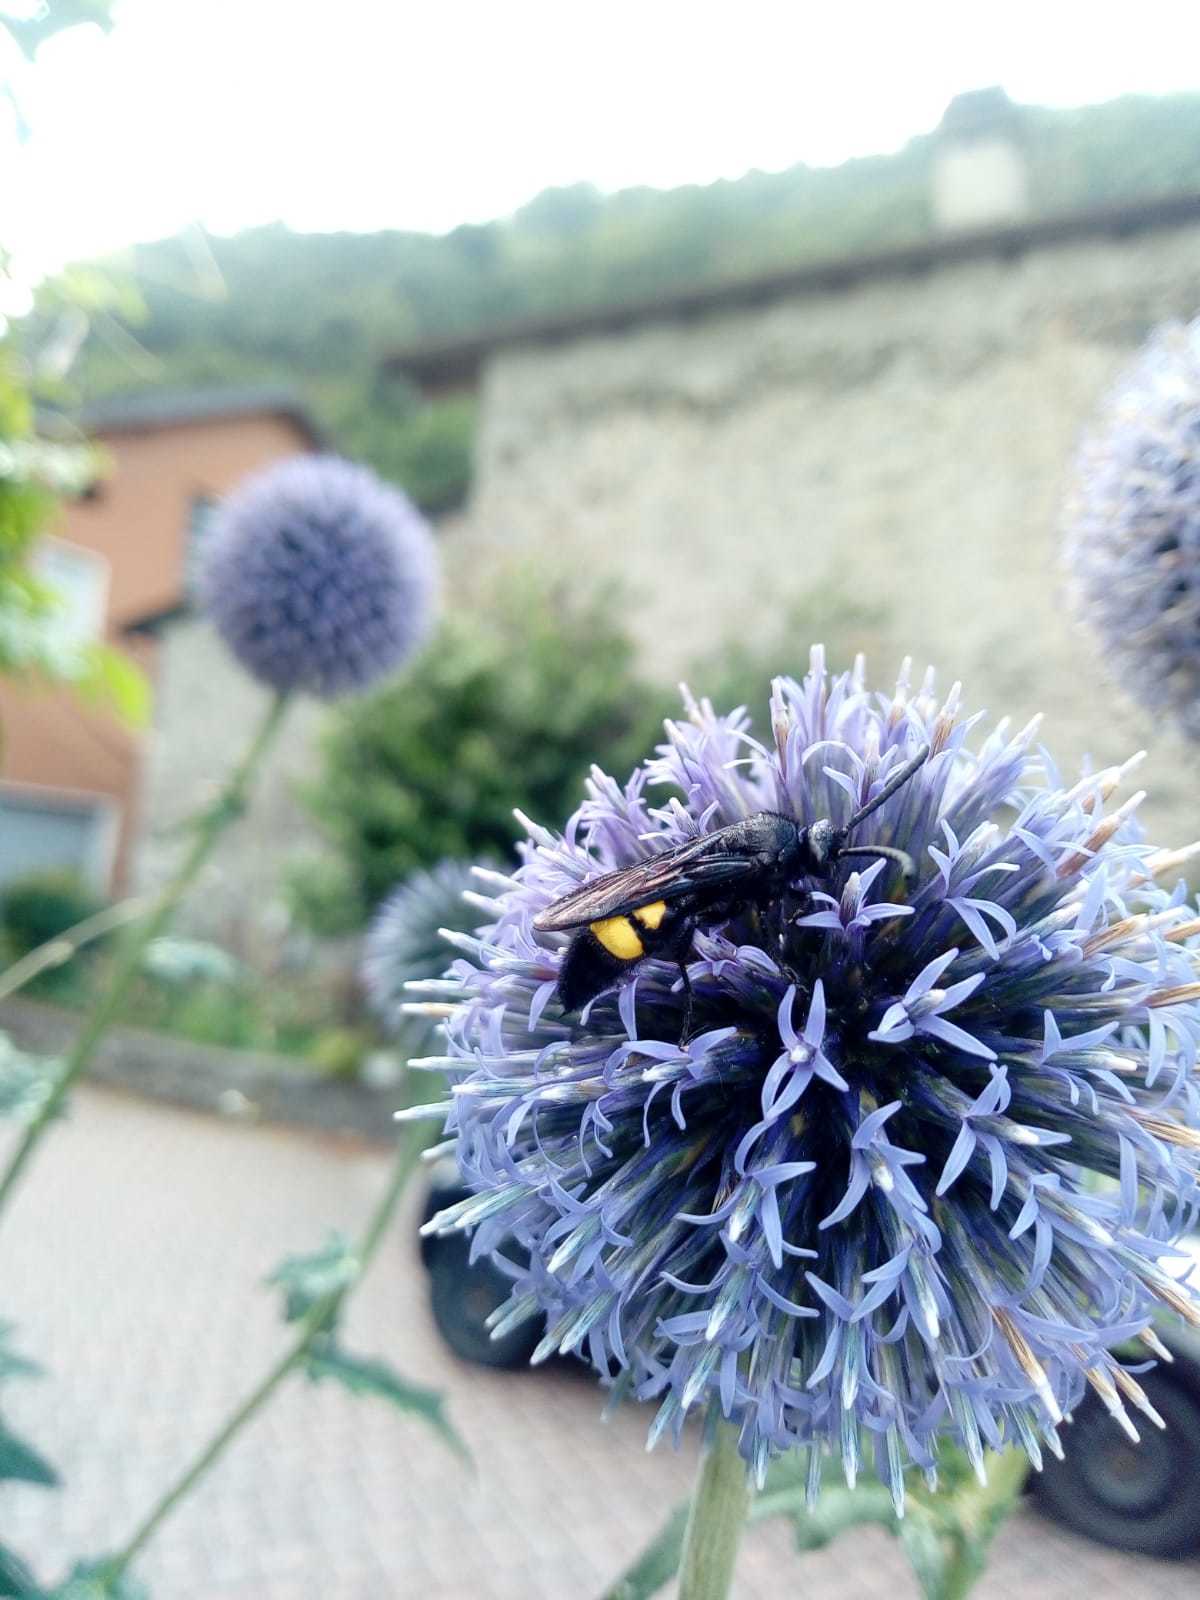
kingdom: Animalia
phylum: Arthropoda
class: Insecta
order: Hymenoptera
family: Scoliidae
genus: Scolia
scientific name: Scolia hirta
